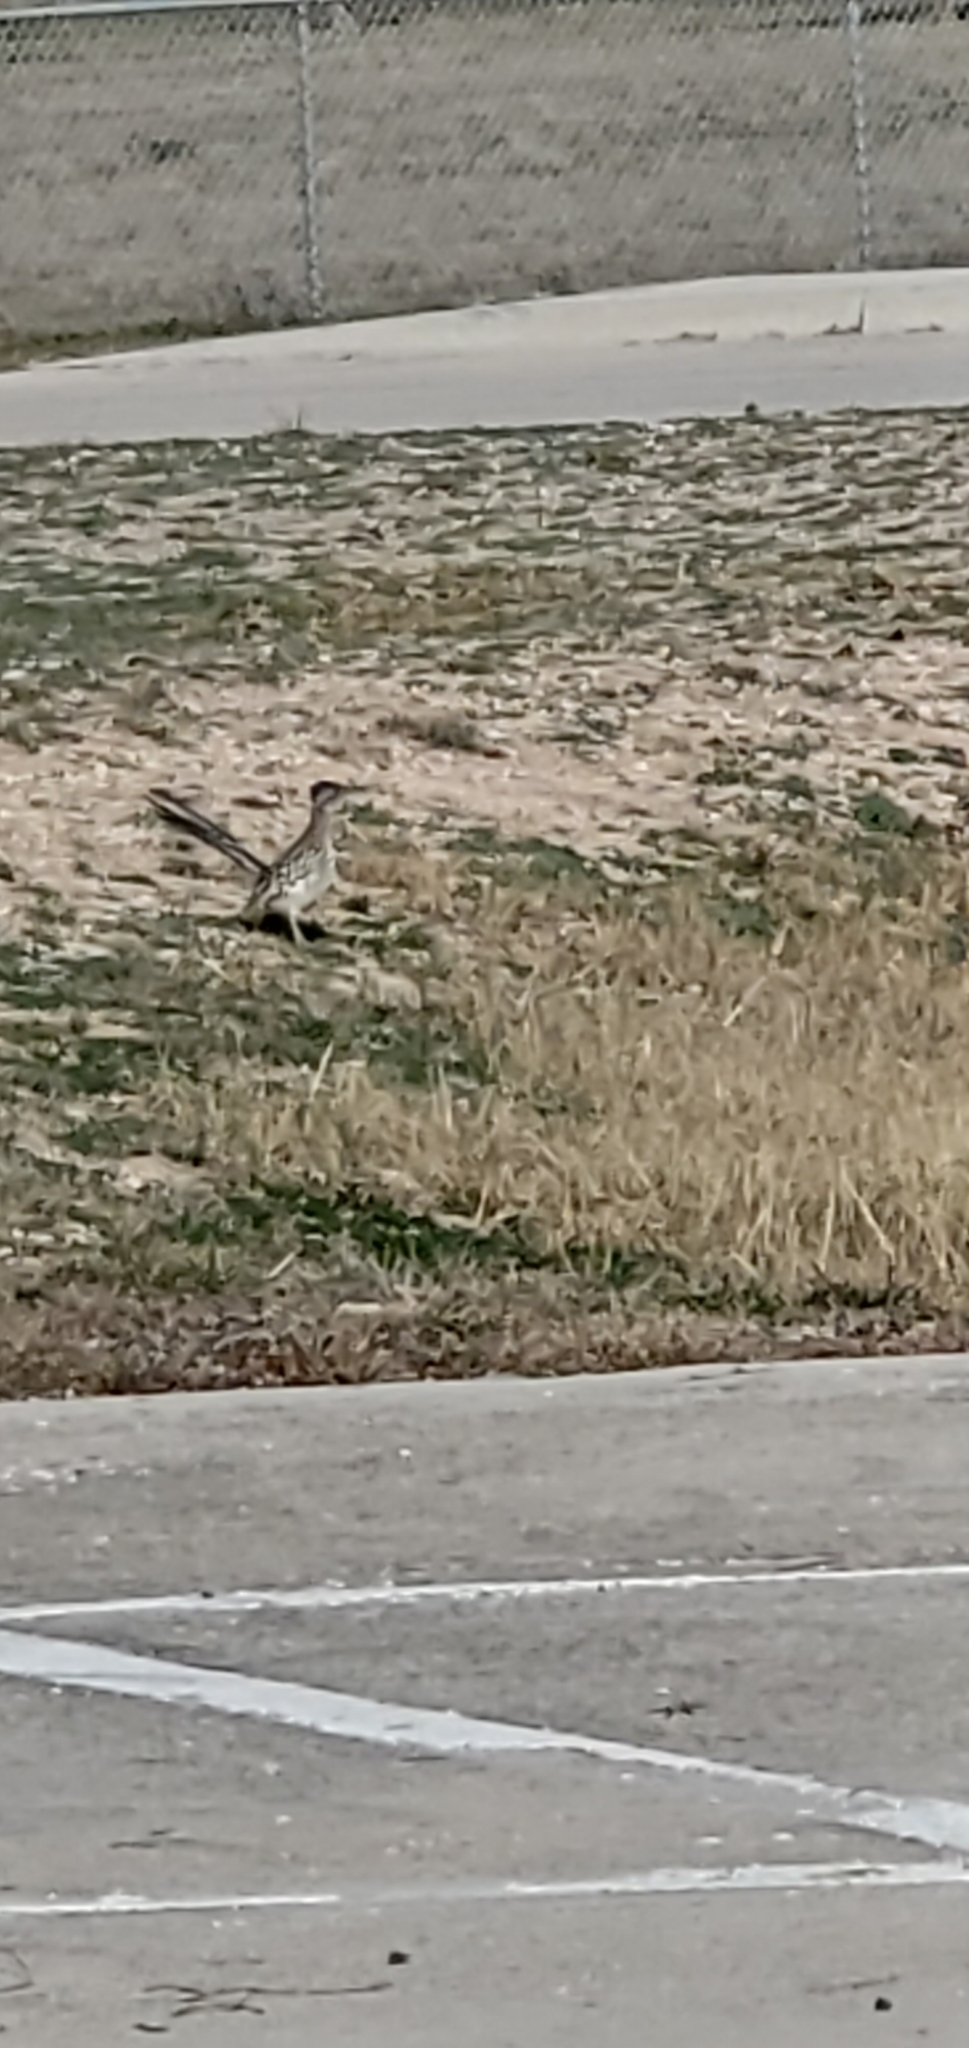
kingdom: Animalia
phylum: Chordata
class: Aves
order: Cuculiformes
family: Cuculidae
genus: Geococcyx
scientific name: Geococcyx californianus
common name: Greater roadrunner
